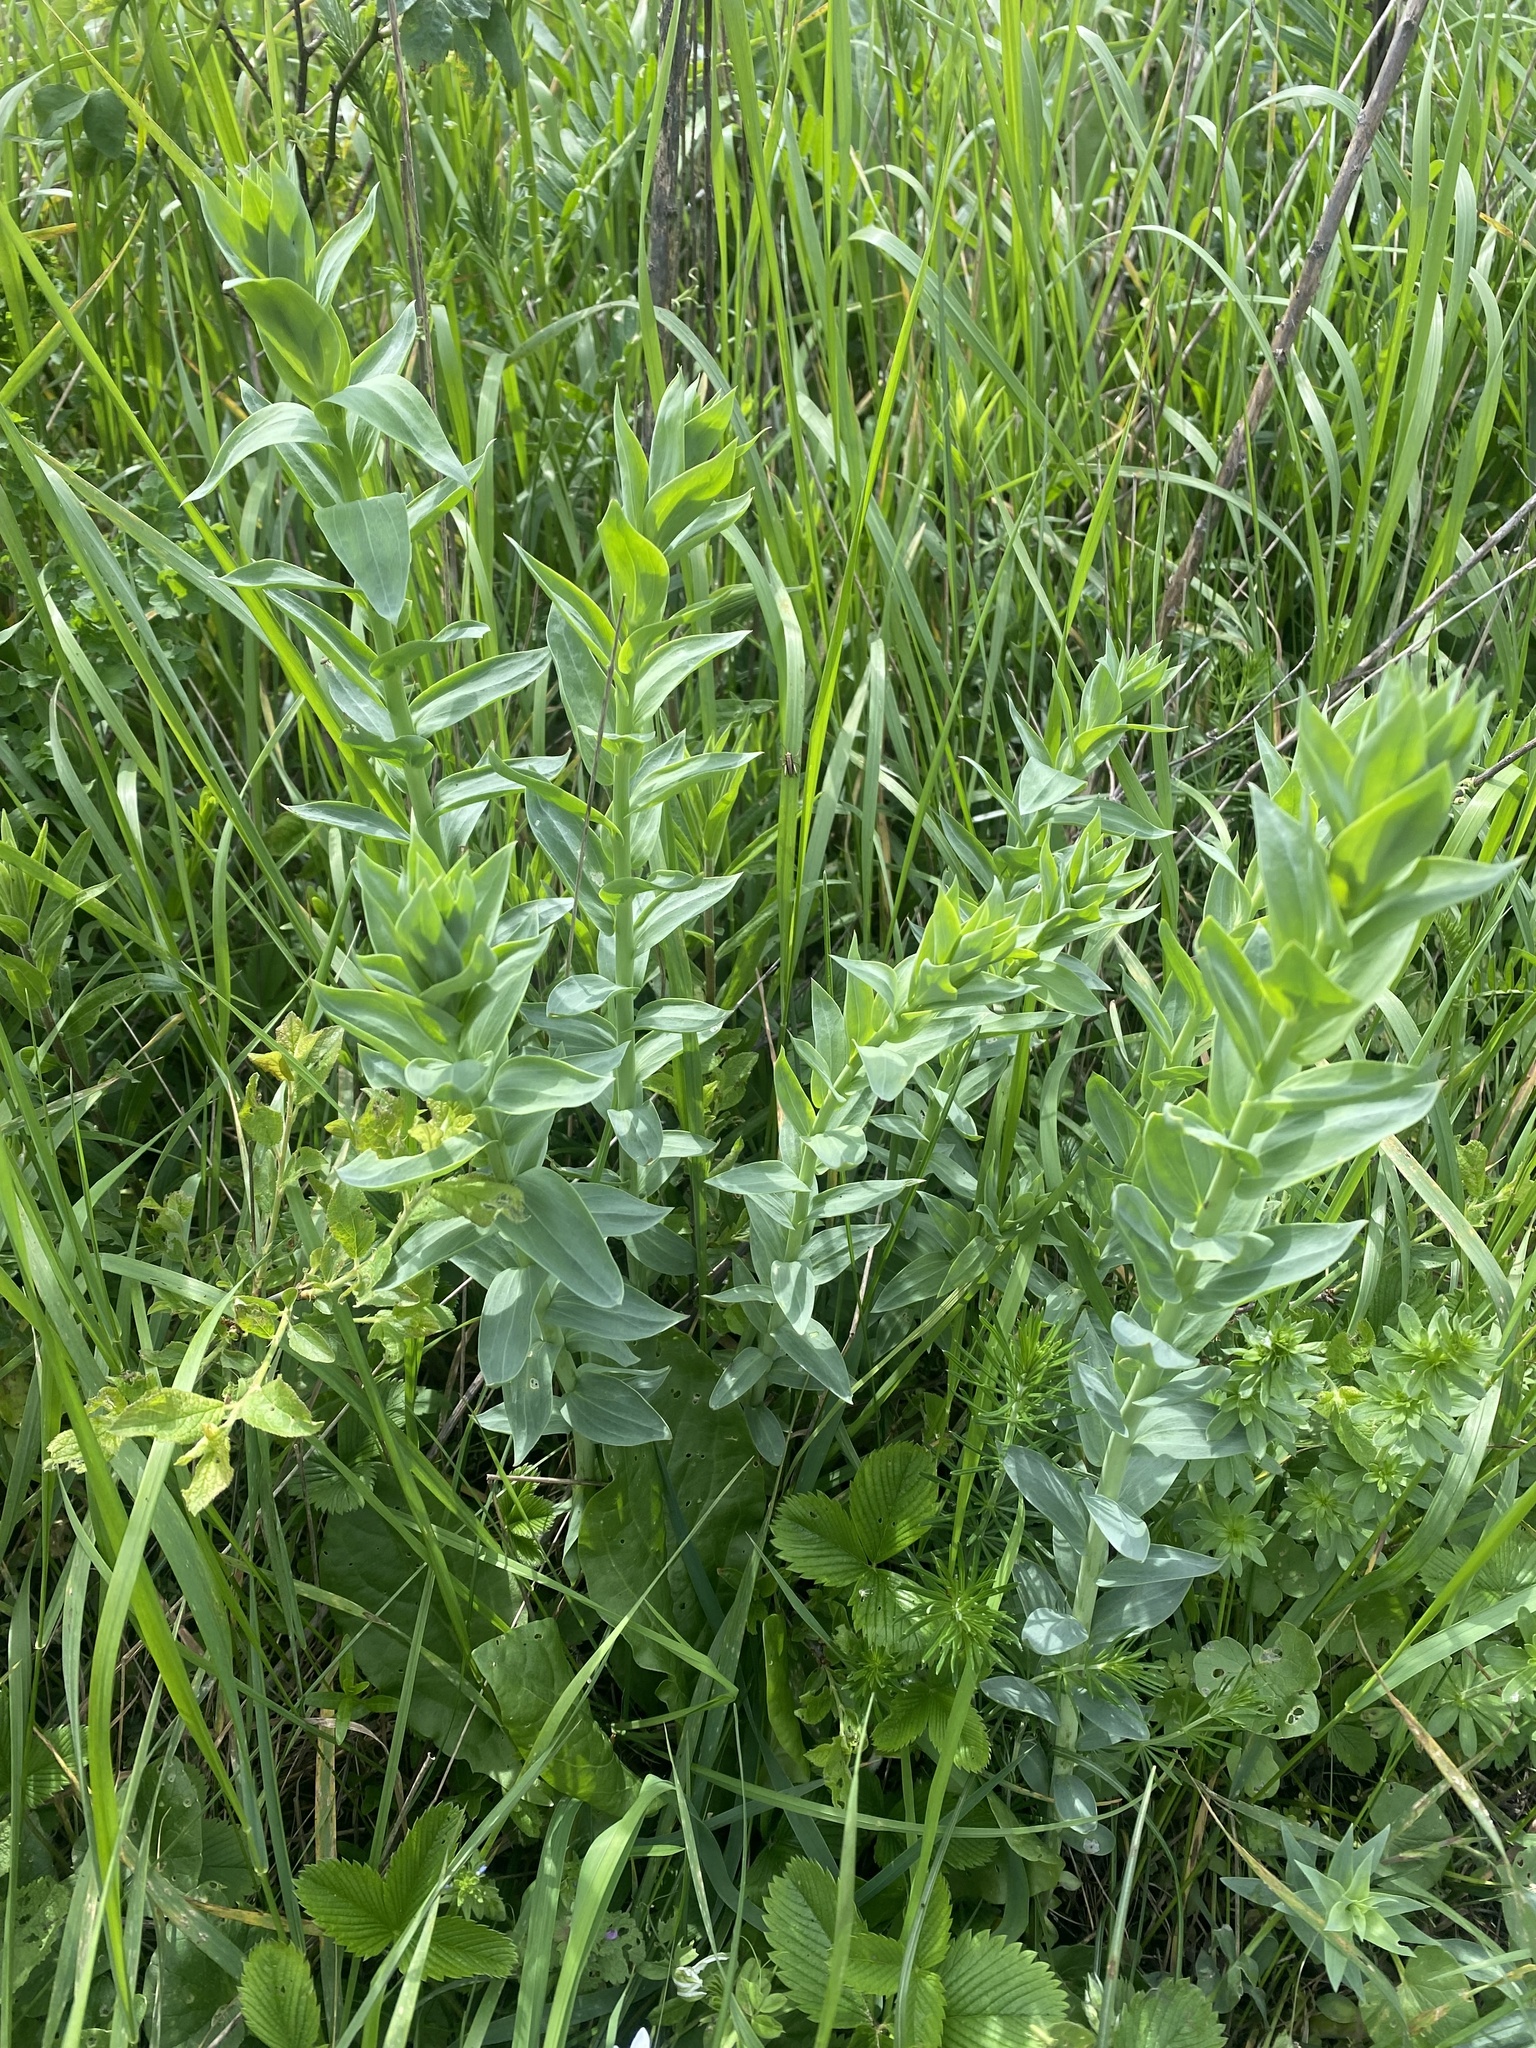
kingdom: Plantae
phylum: Tracheophyta
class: Magnoliopsida
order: Lamiales
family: Plantaginaceae
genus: Linaria
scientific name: Linaria genistifolia
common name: Broomleaf toadflax
